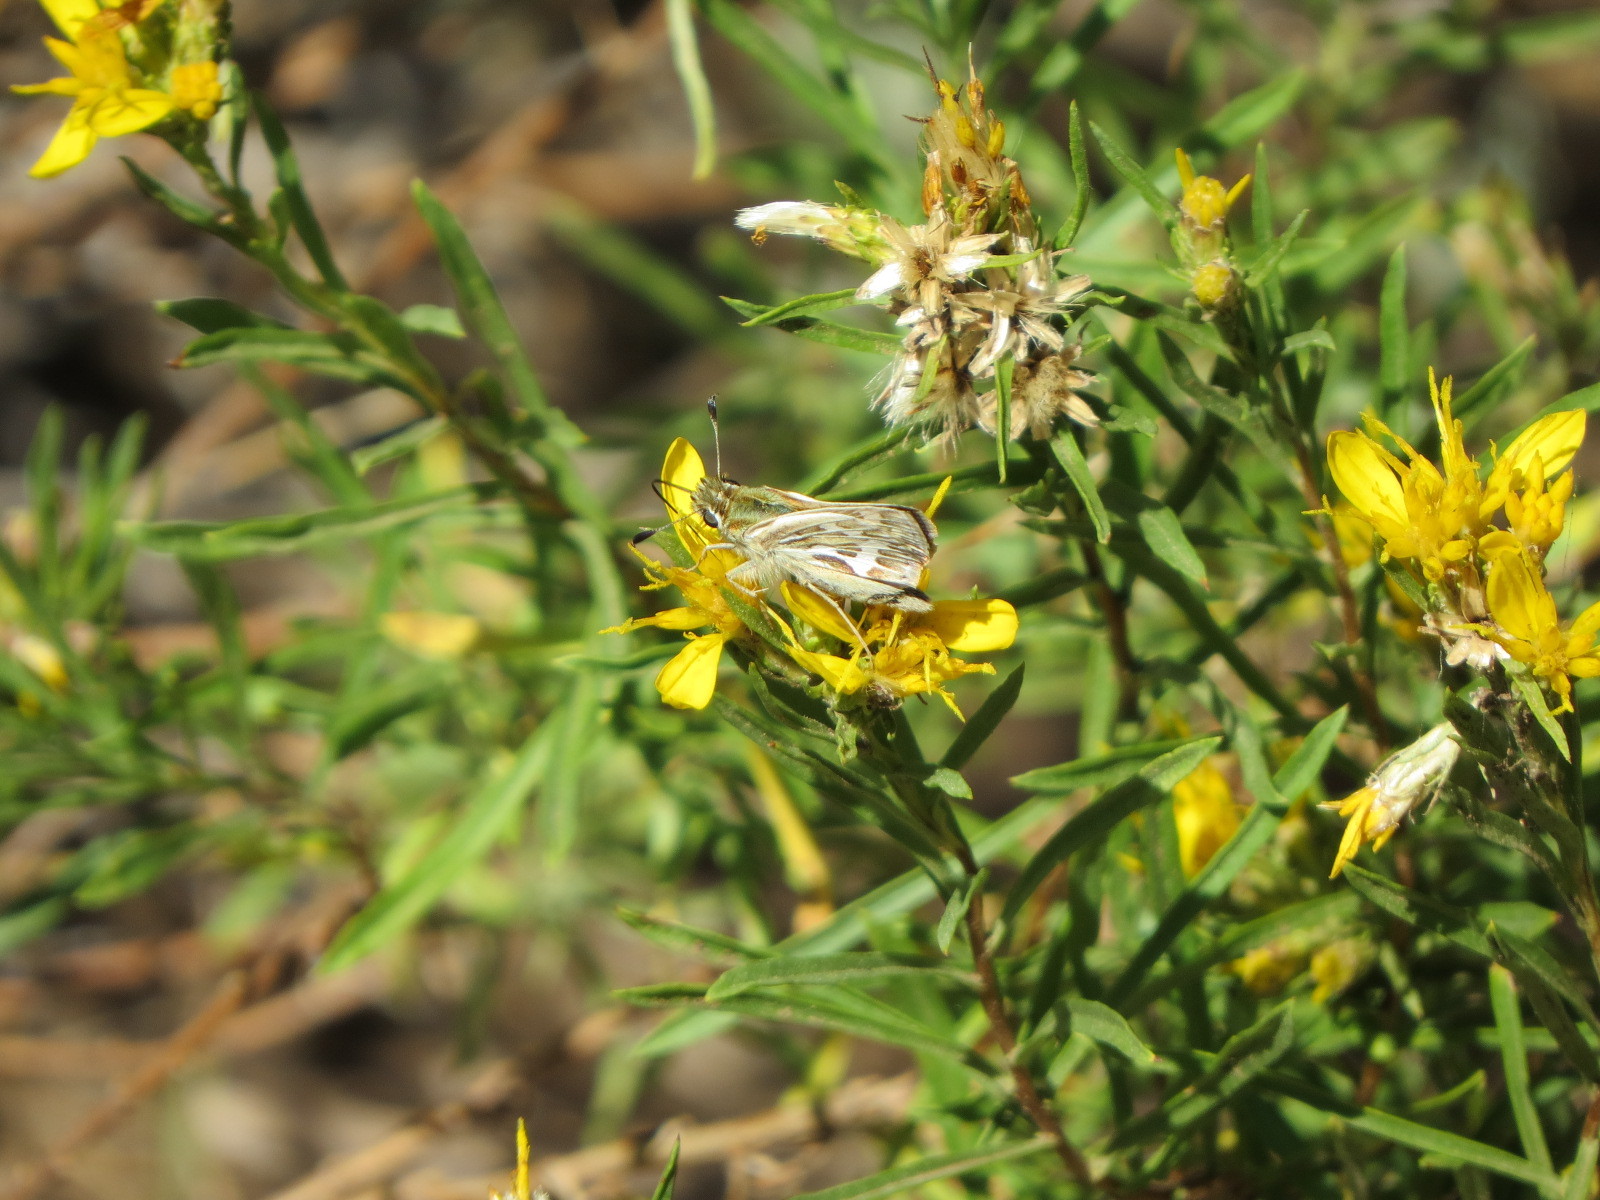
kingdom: Animalia
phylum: Arthropoda
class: Insecta
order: Lepidoptera
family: Hesperiidae
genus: Polites
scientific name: Polites sabuleti
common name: Sandhill skipper
